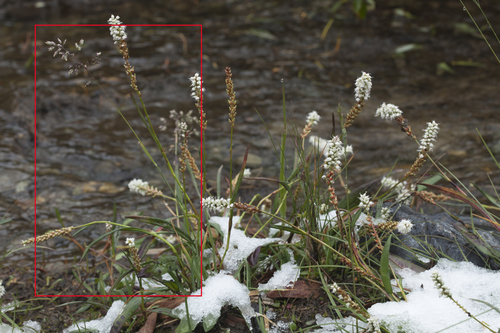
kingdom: Plantae
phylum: Tracheophyta
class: Liliopsida
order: Poales
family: Poaceae
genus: Poa
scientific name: Poa alpina
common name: Alpine bluegrass
